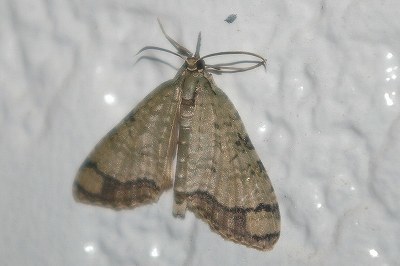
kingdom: Animalia
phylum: Arthropoda
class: Insecta
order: Lepidoptera
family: Geometridae
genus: Episteira
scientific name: Episteira nigrilinearia
